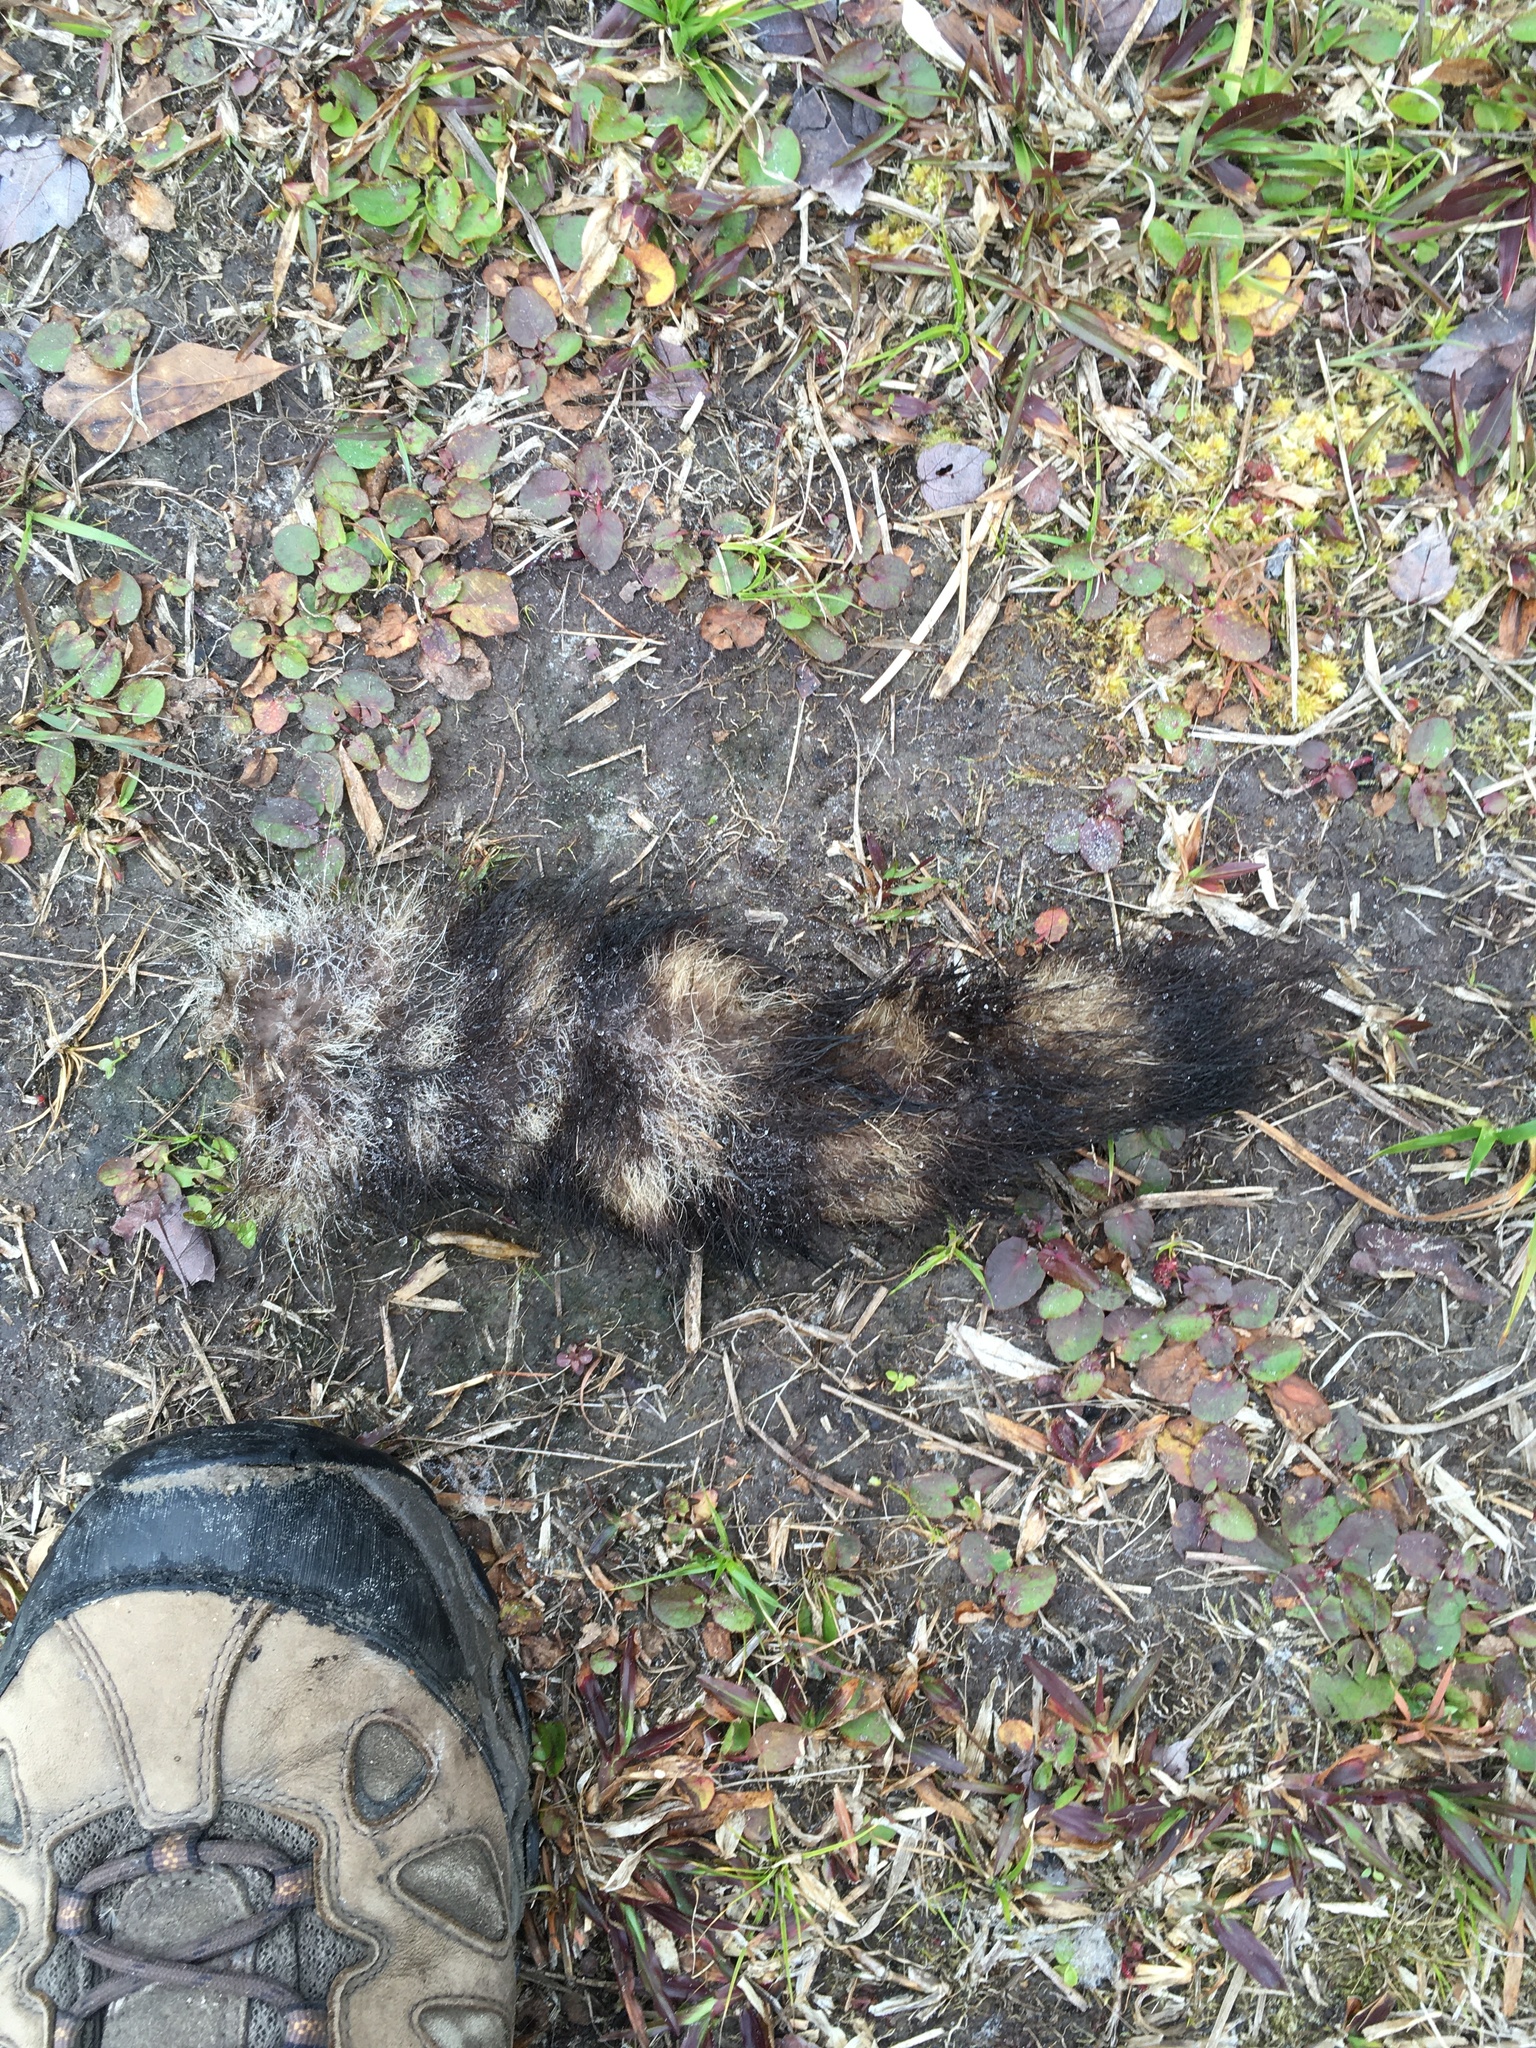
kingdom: Animalia
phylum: Chordata
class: Mammalia
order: Carnivora
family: Procyonidae
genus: Procyon
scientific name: Procyon lotor
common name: Raccoon
